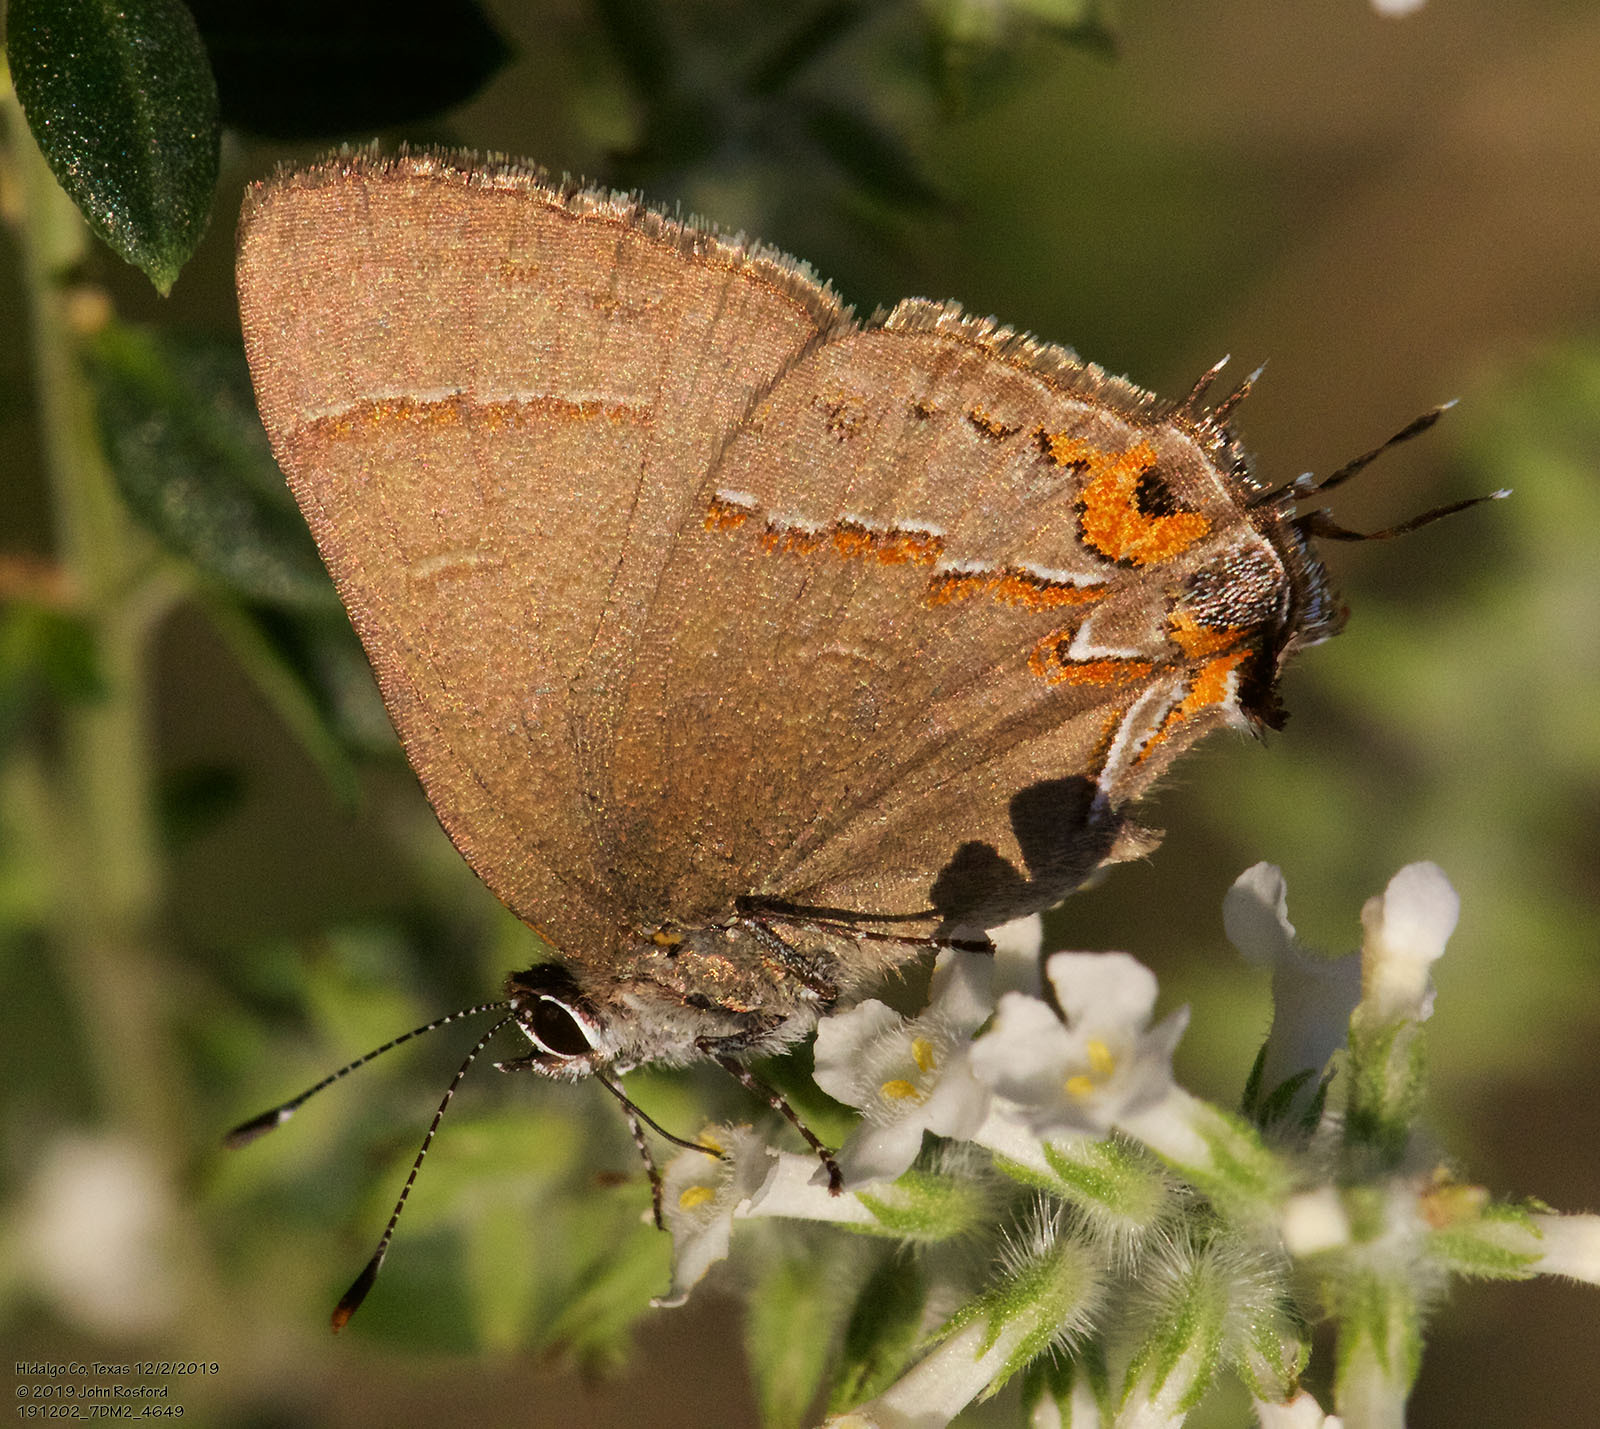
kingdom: Animalia
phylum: Arthropoda
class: Insecta
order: Lepidoptera
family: Lycaenidae
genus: Electrostrymon
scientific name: Electrostrymon
